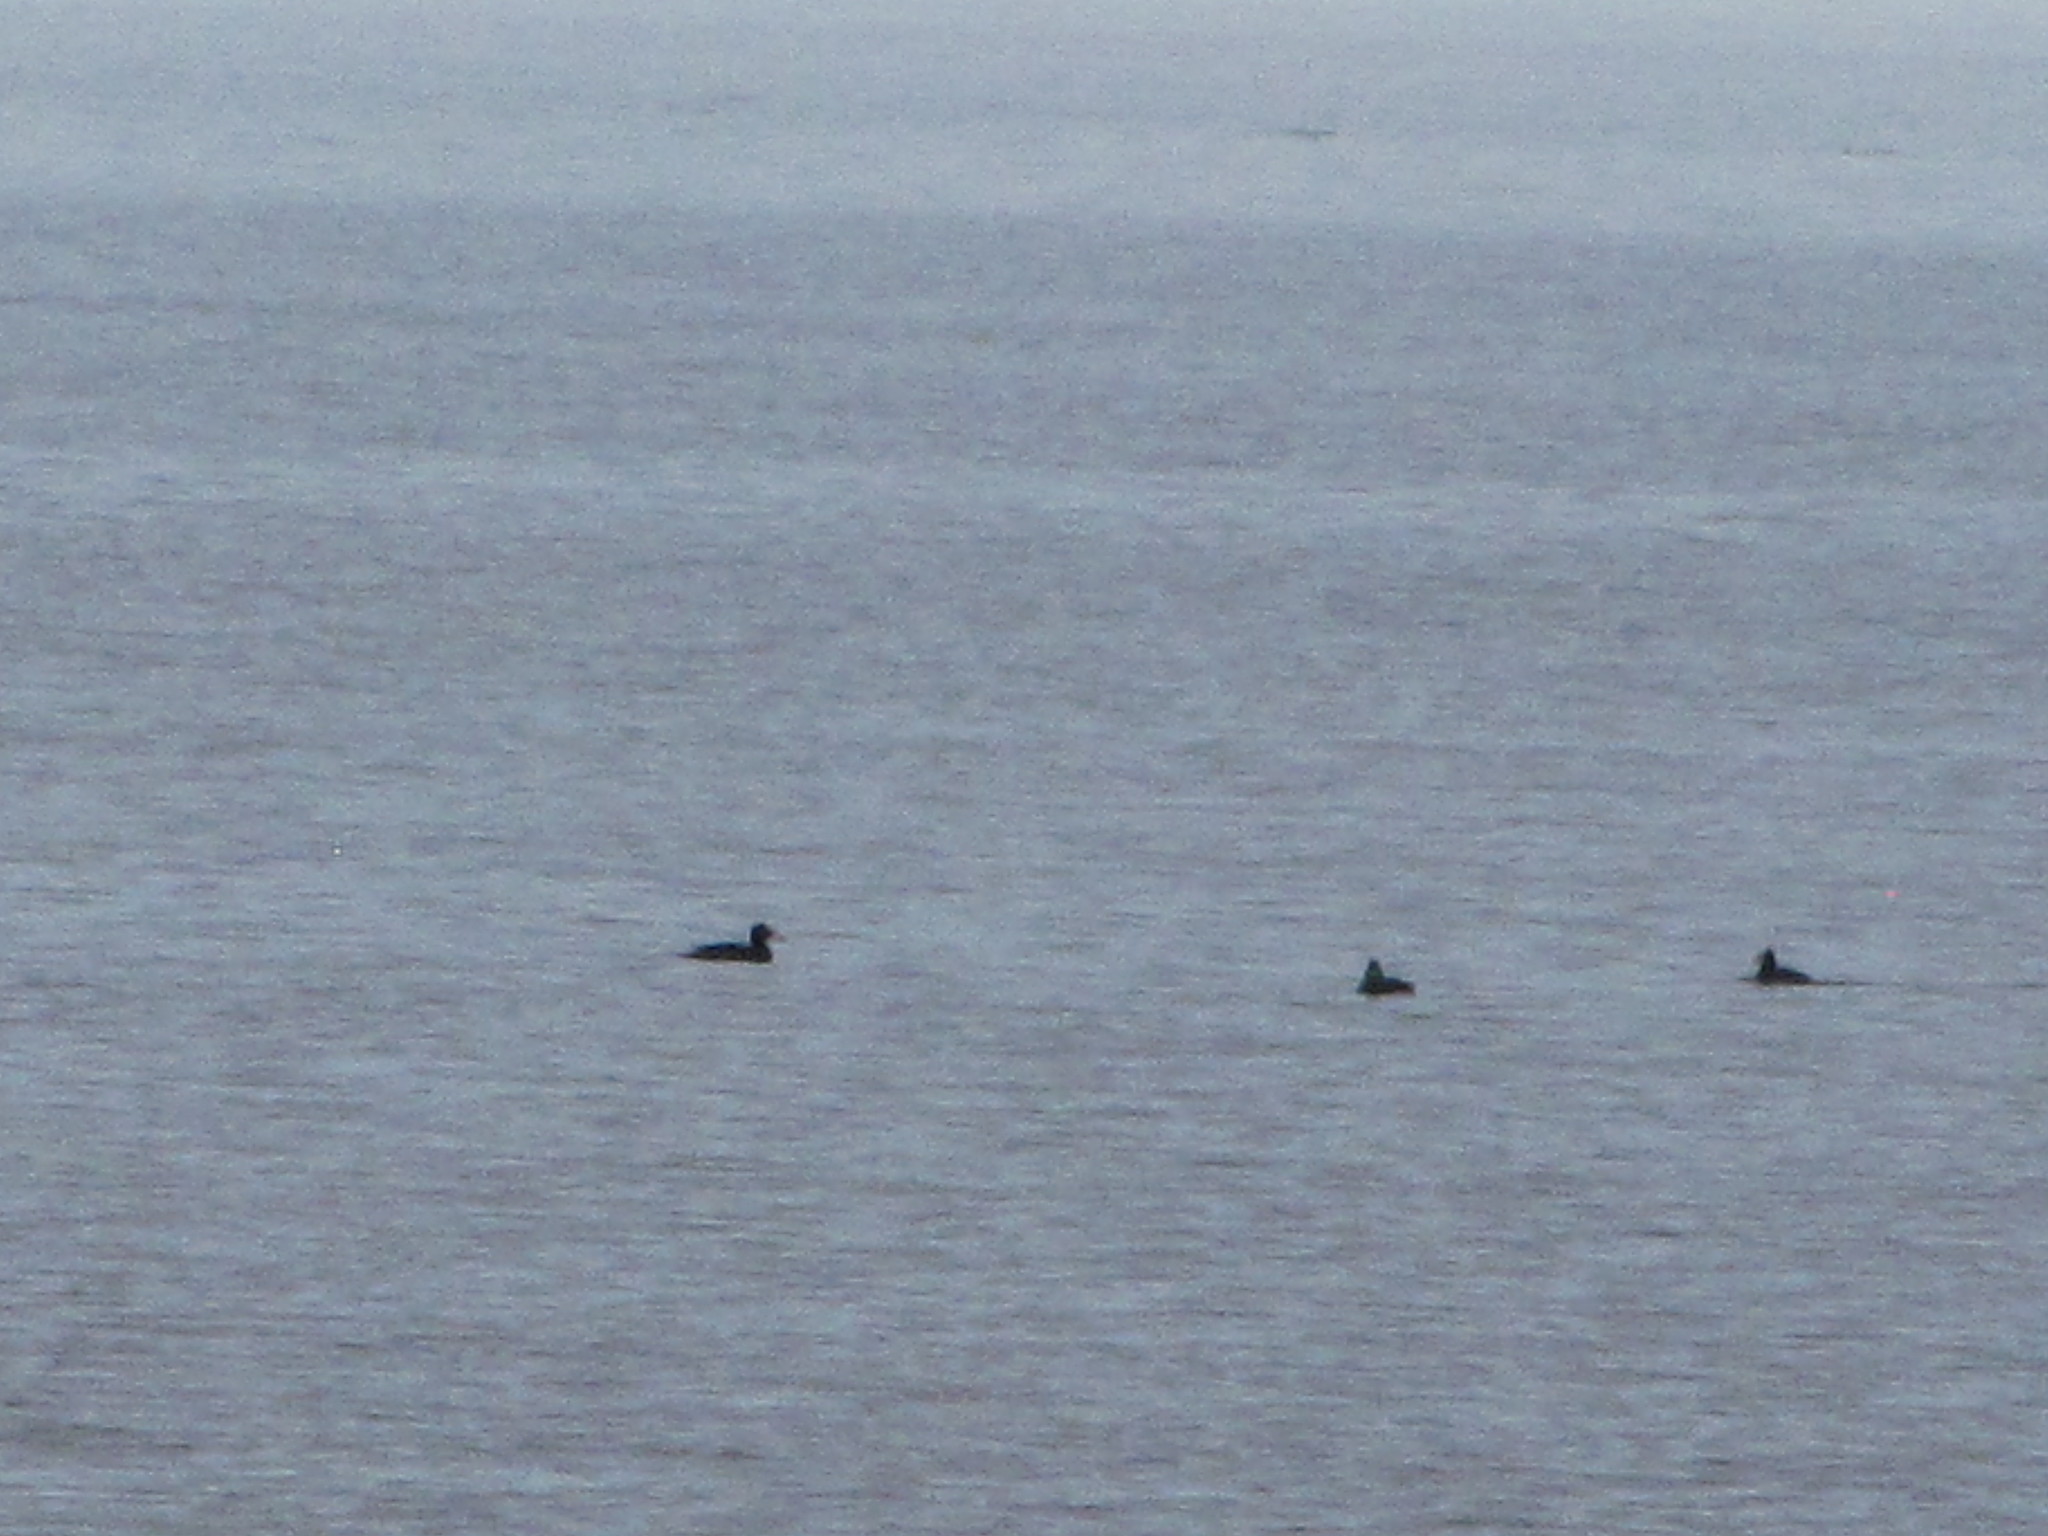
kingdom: Animalia
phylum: Chordata
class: Aves
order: Anseriformes
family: Anatidae
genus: Melanitta
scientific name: Melanitta perspicillata
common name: Surf scoter
